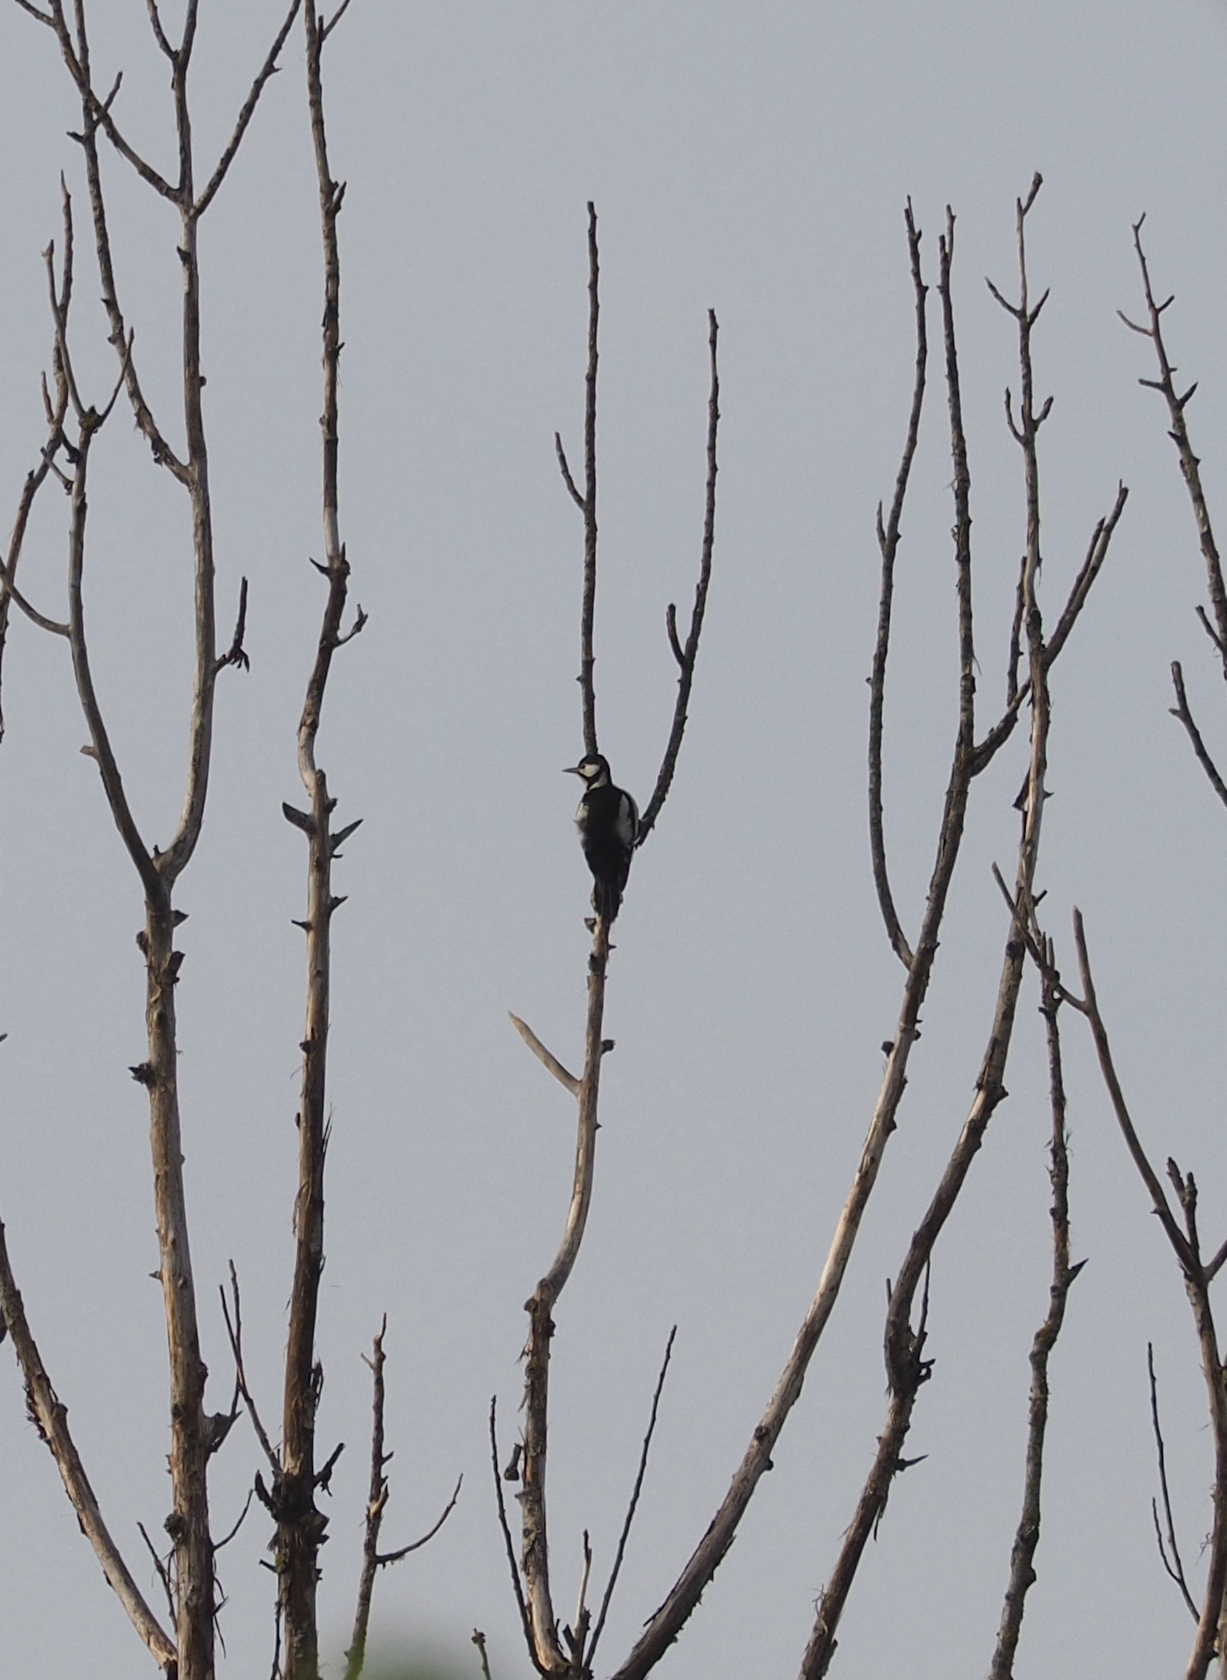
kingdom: Animalia
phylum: Chordata
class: Aves
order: Piciformes
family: Picidae
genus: Dendrocopos
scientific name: Dendrocopos major
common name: Great spotted woodpecker
